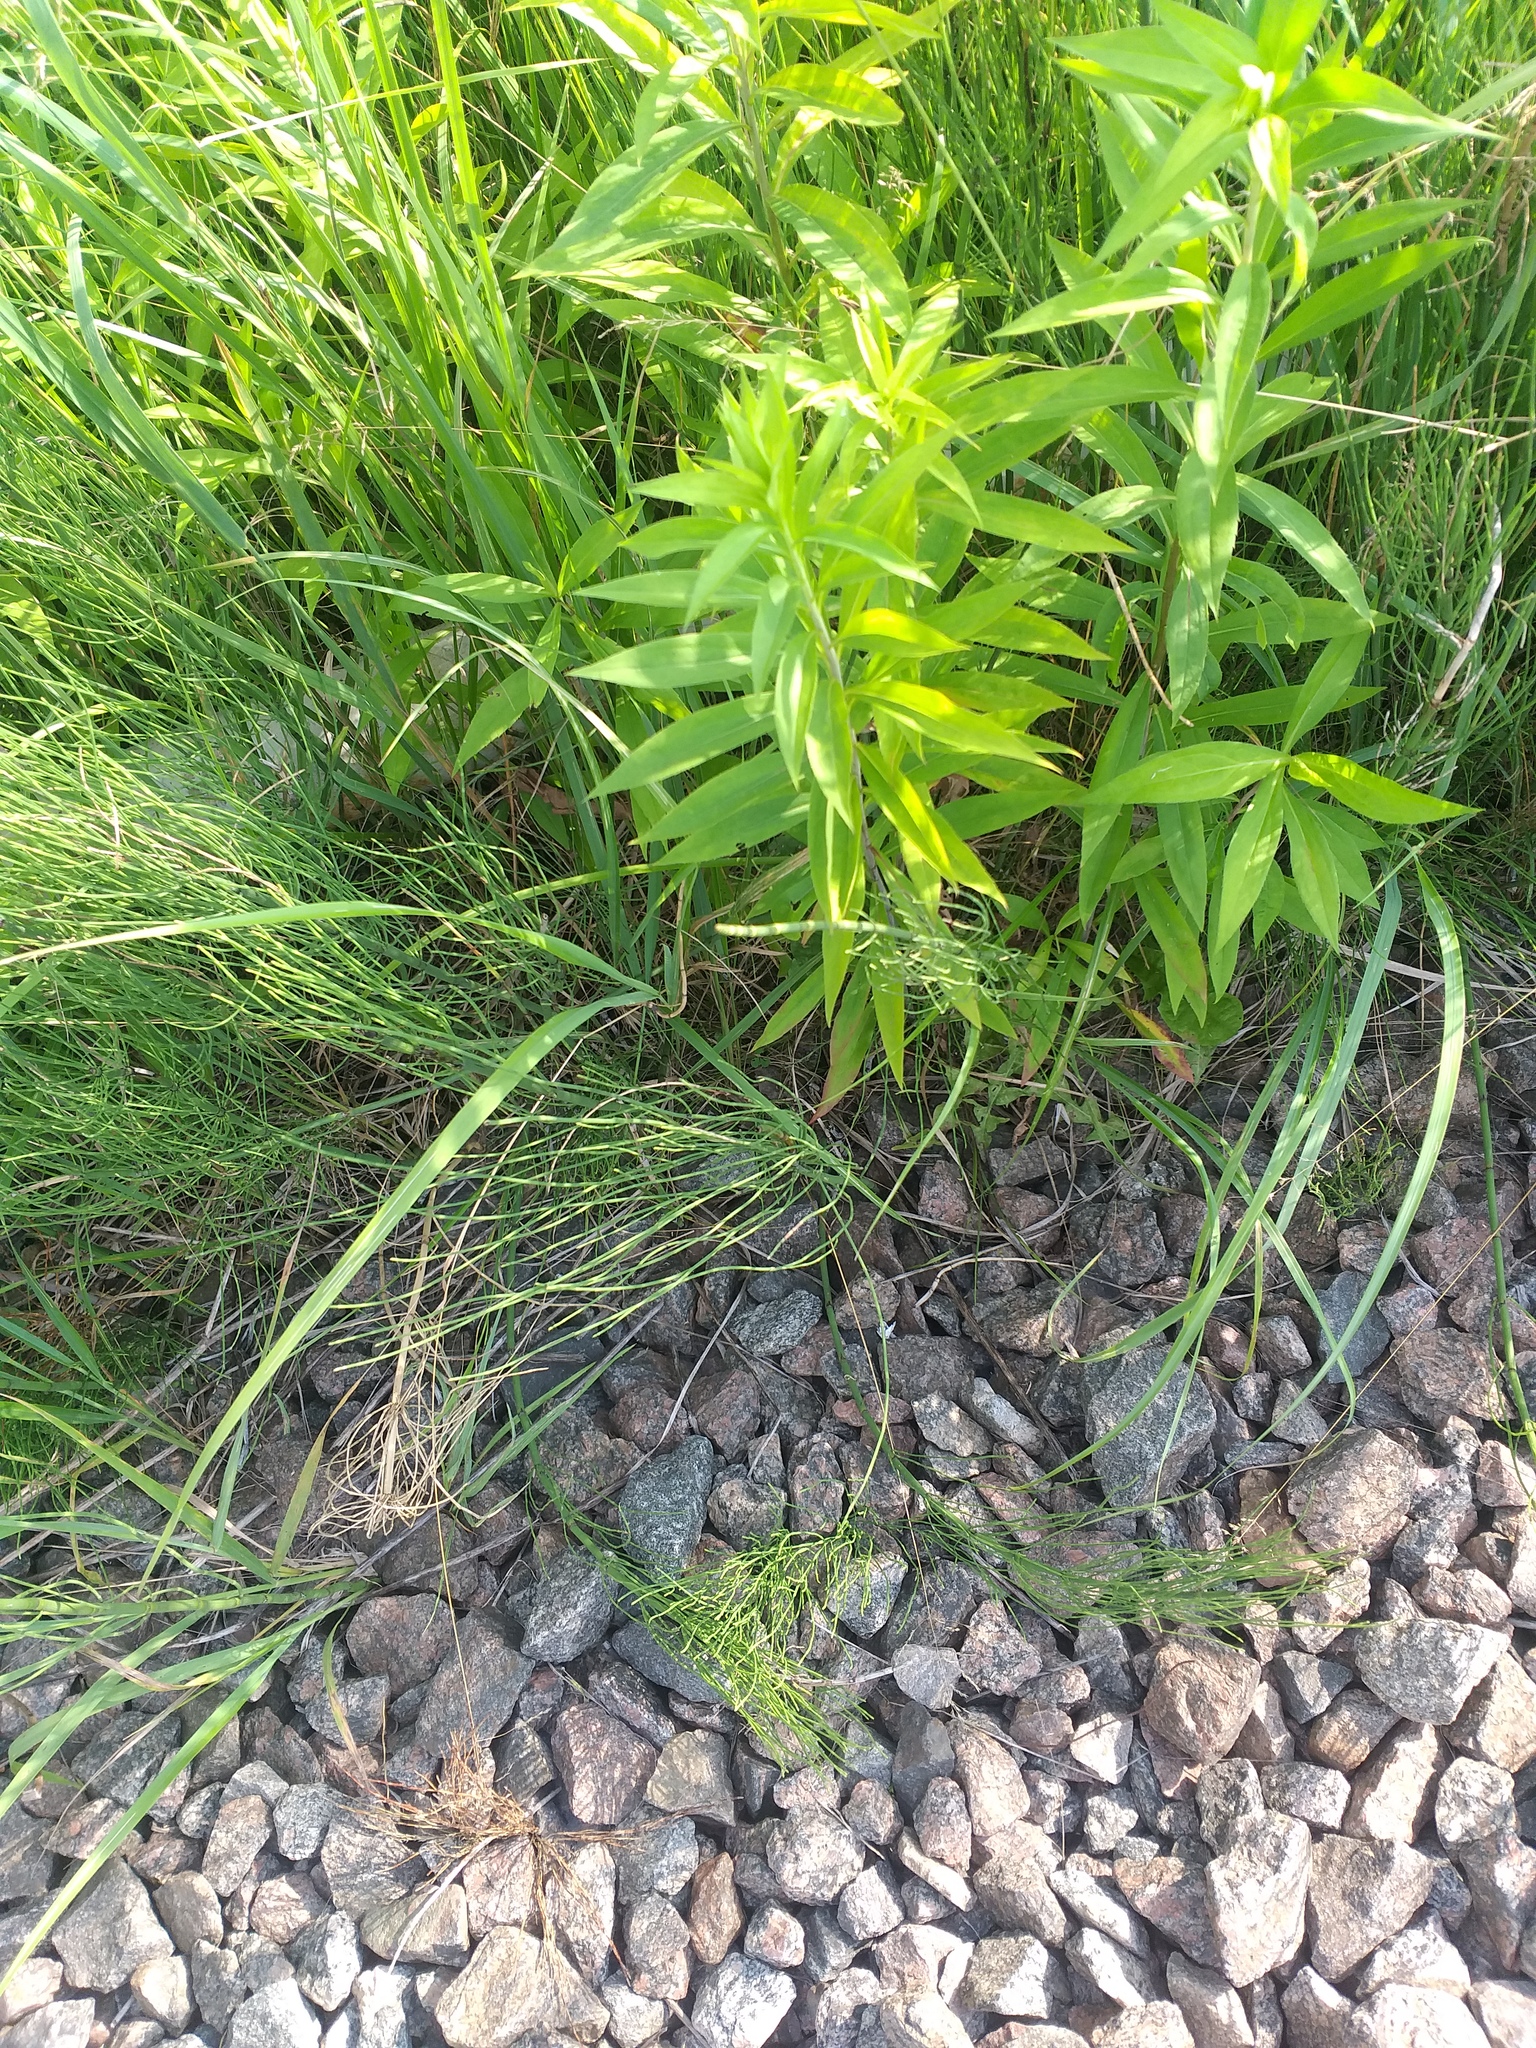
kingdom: Plantae
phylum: Tracheophyta
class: Polypodiopsida
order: Equisetales
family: Equisetaceae
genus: Equisetum
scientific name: Equisetum fluviatile
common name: Water horsetail
